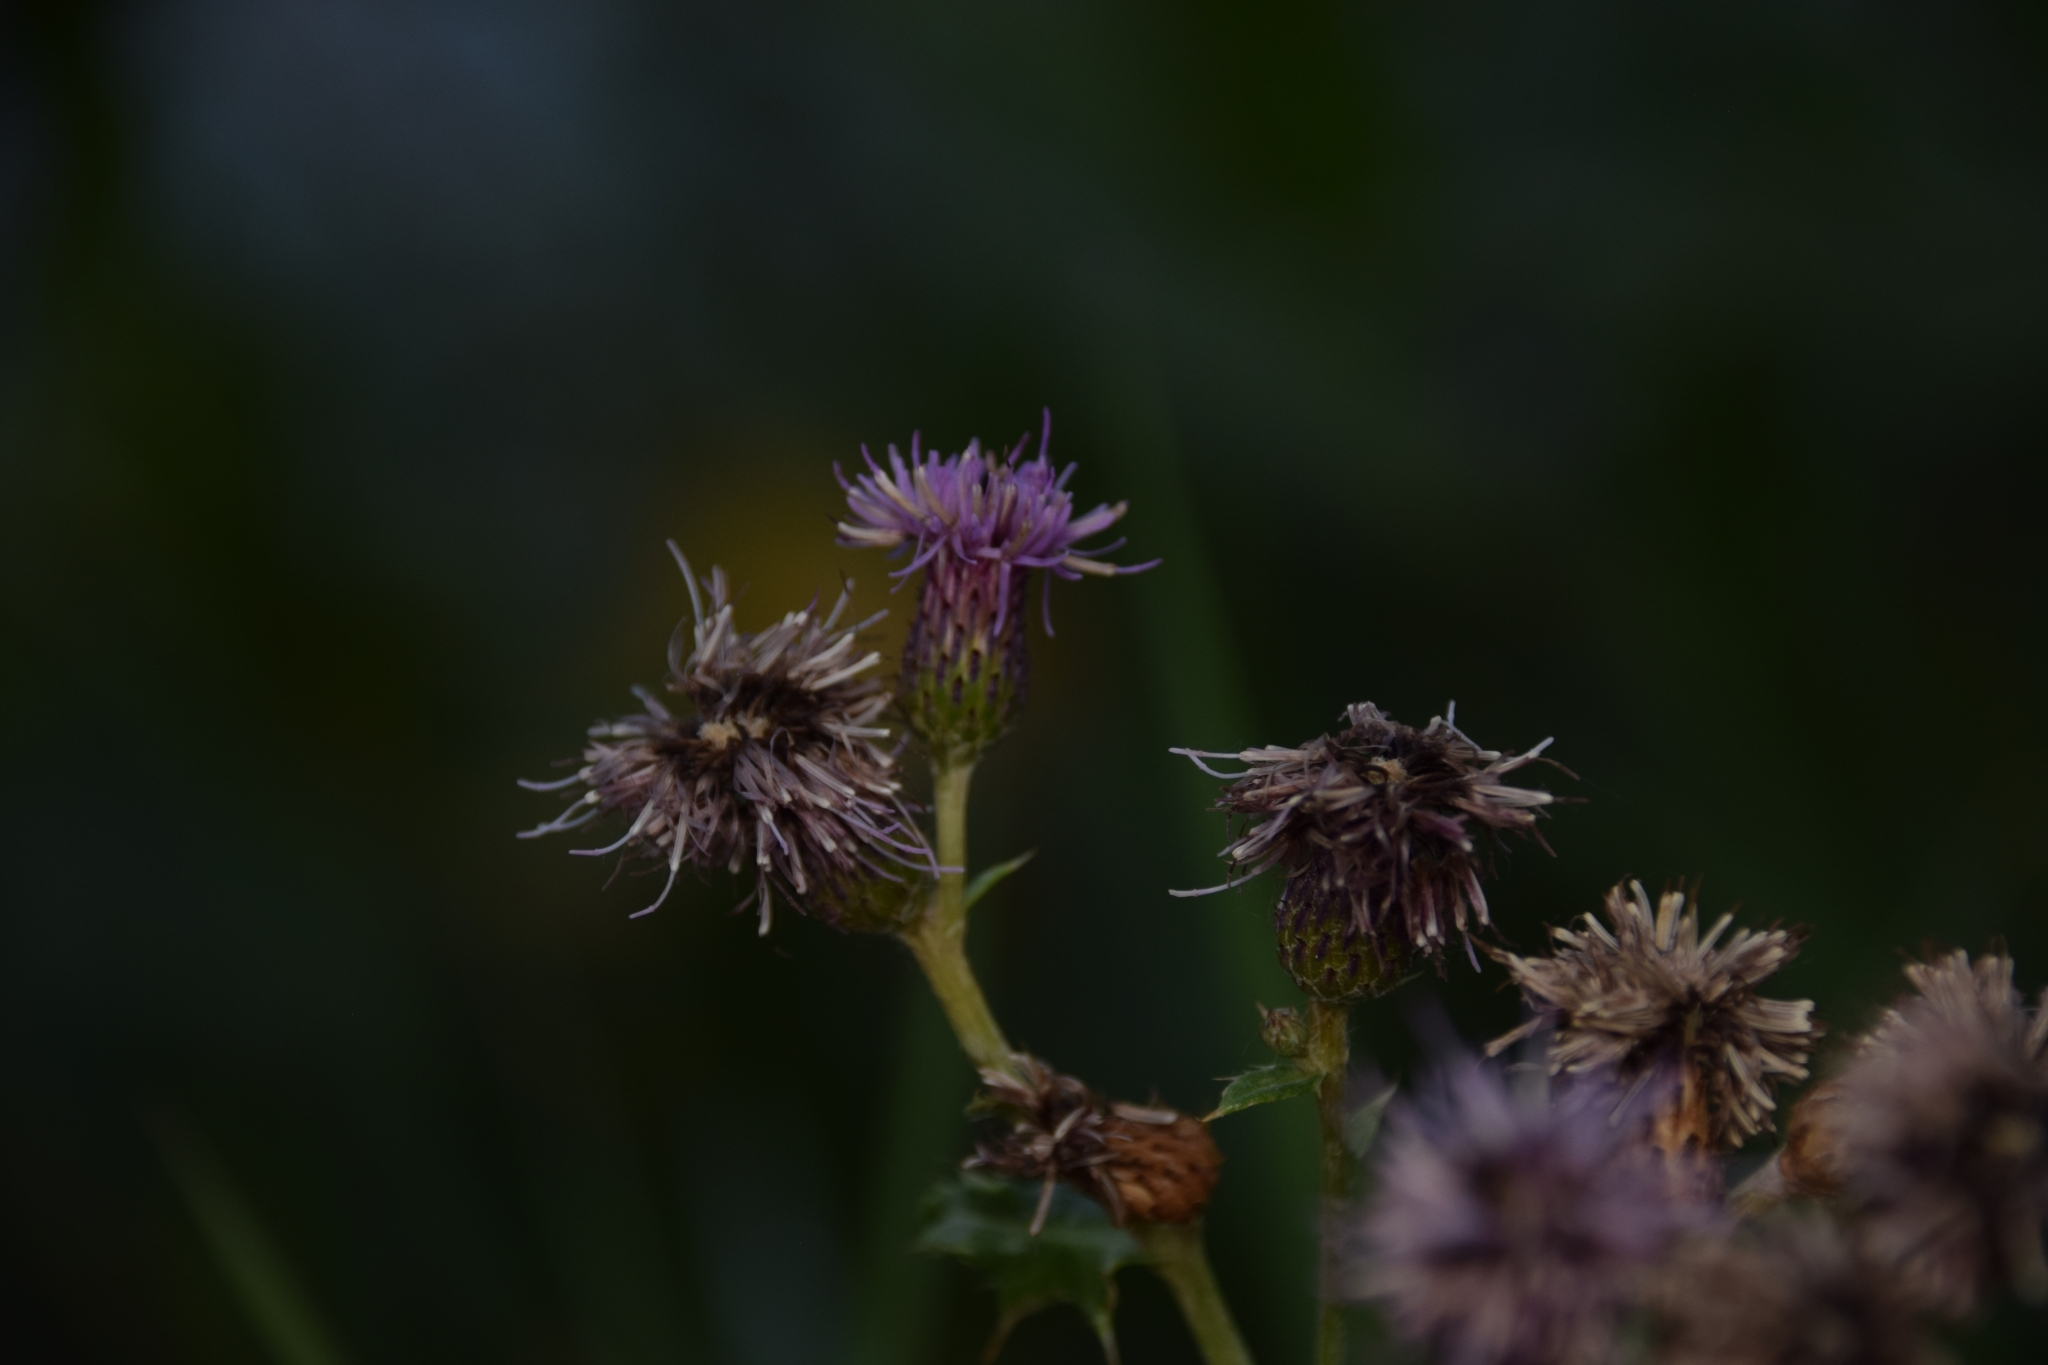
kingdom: Plantae
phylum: Tracheophyta
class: Magnoliopsida
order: Asterales
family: Asteraceae
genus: Cirsium
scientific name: Cirsium arvense
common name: Creeping thistle
